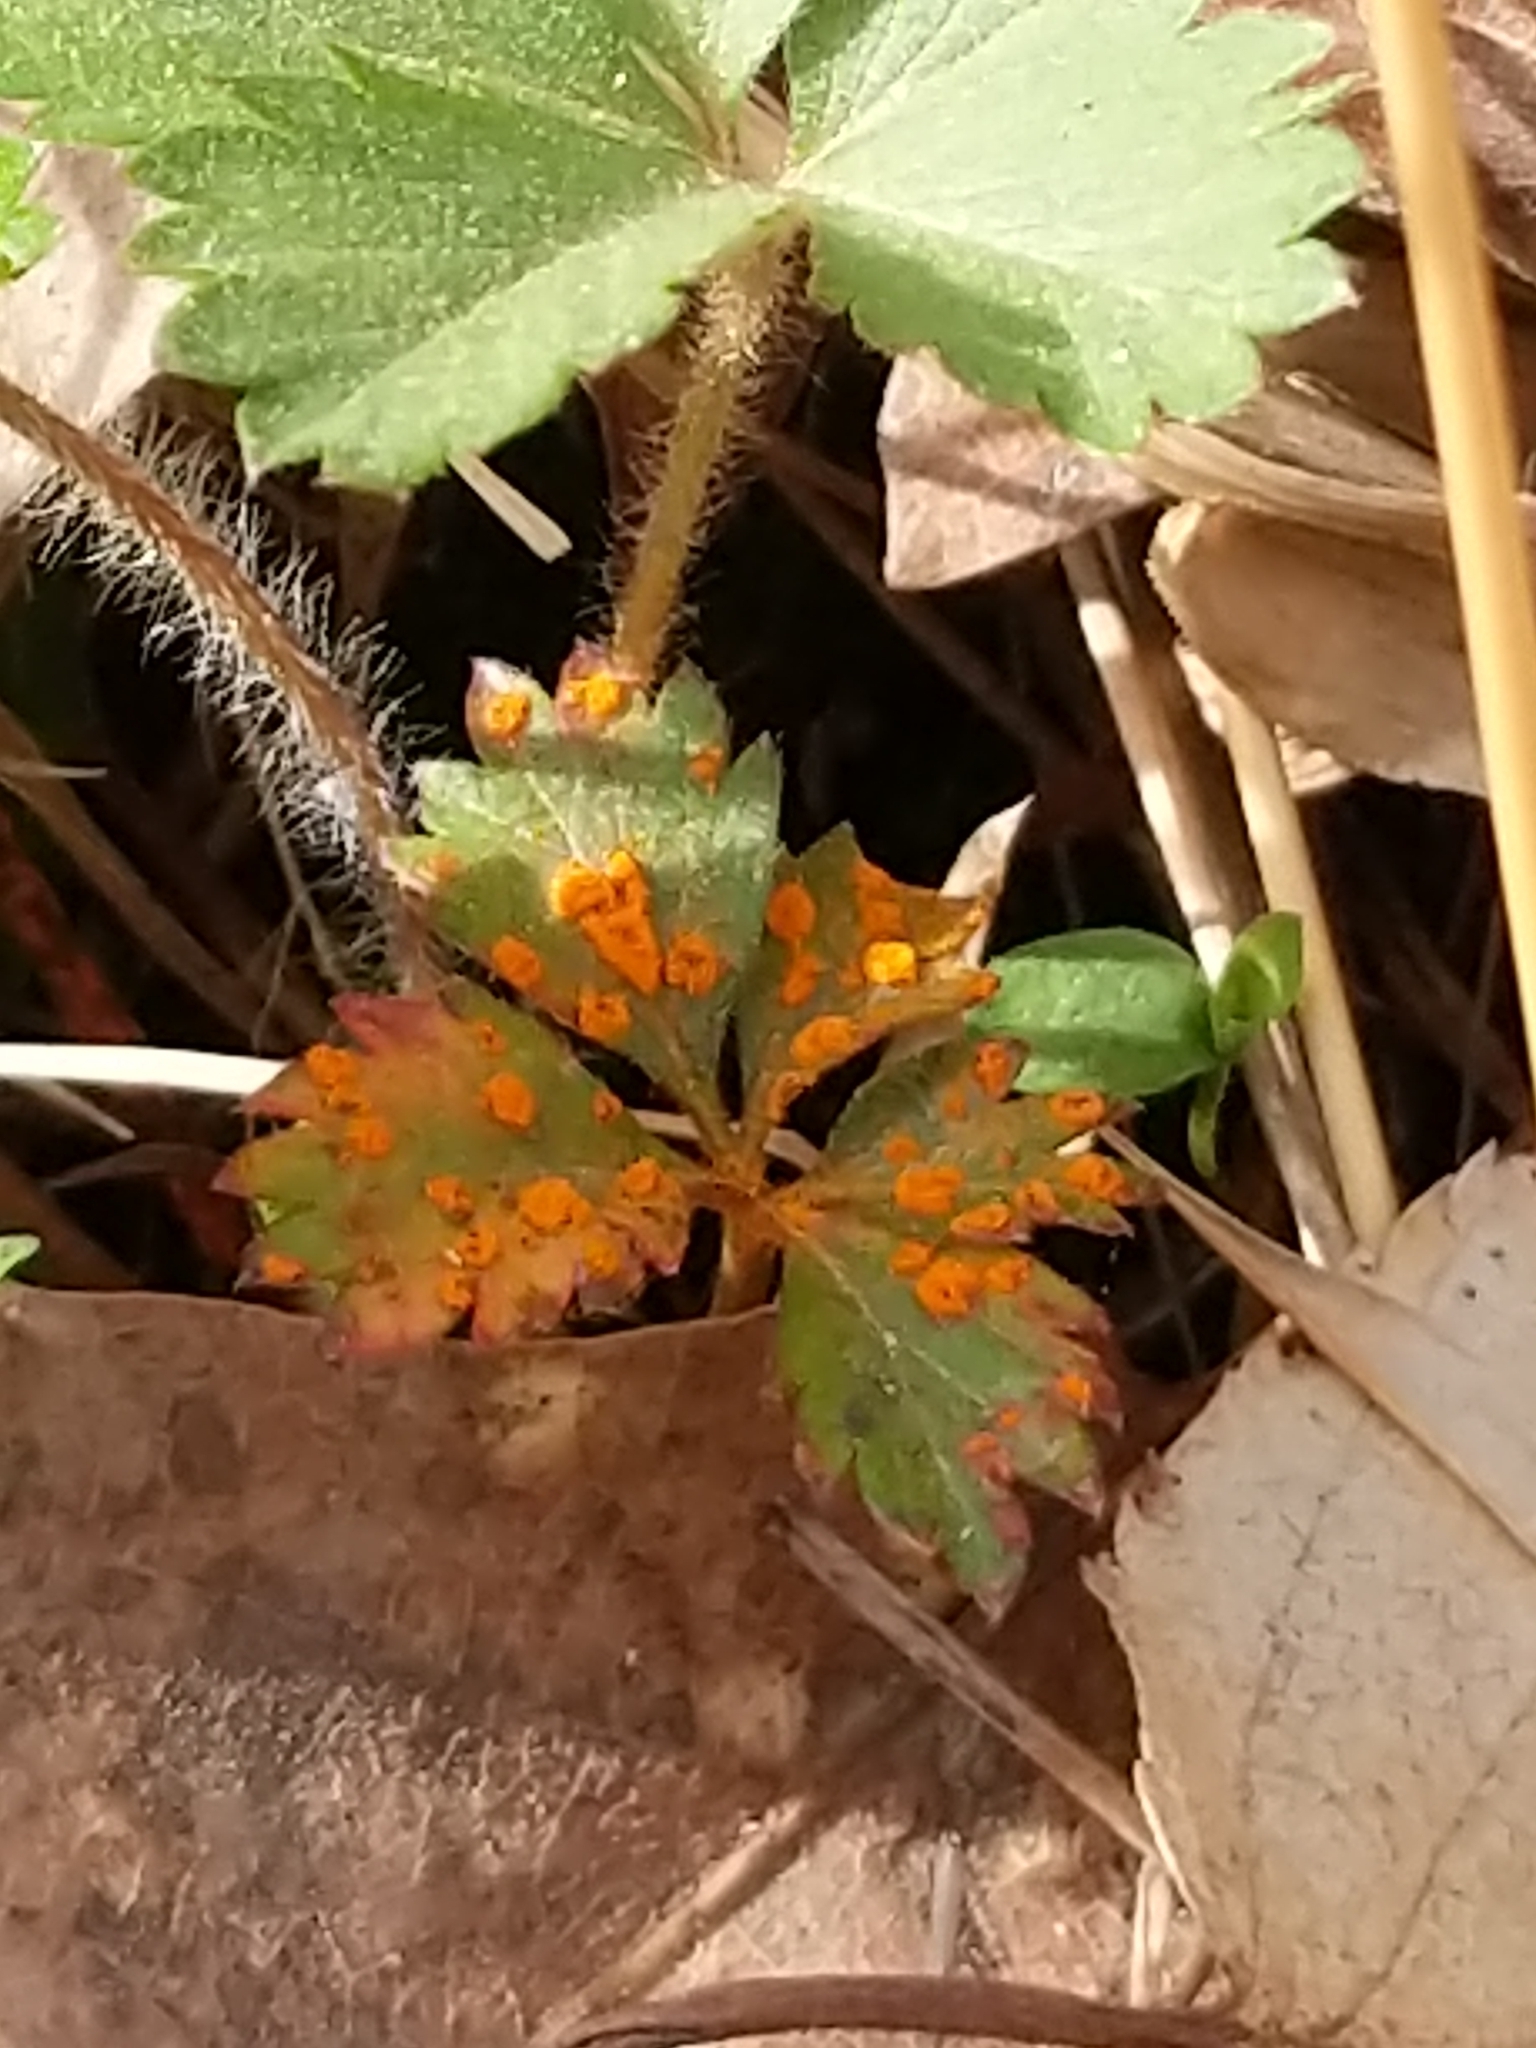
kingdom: Fungi
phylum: Basidiomycota
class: Pucciniomycetes
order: Pucciniales
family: Phragmidiaceae
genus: Phragmidium
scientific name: Phragmidium potentillae
